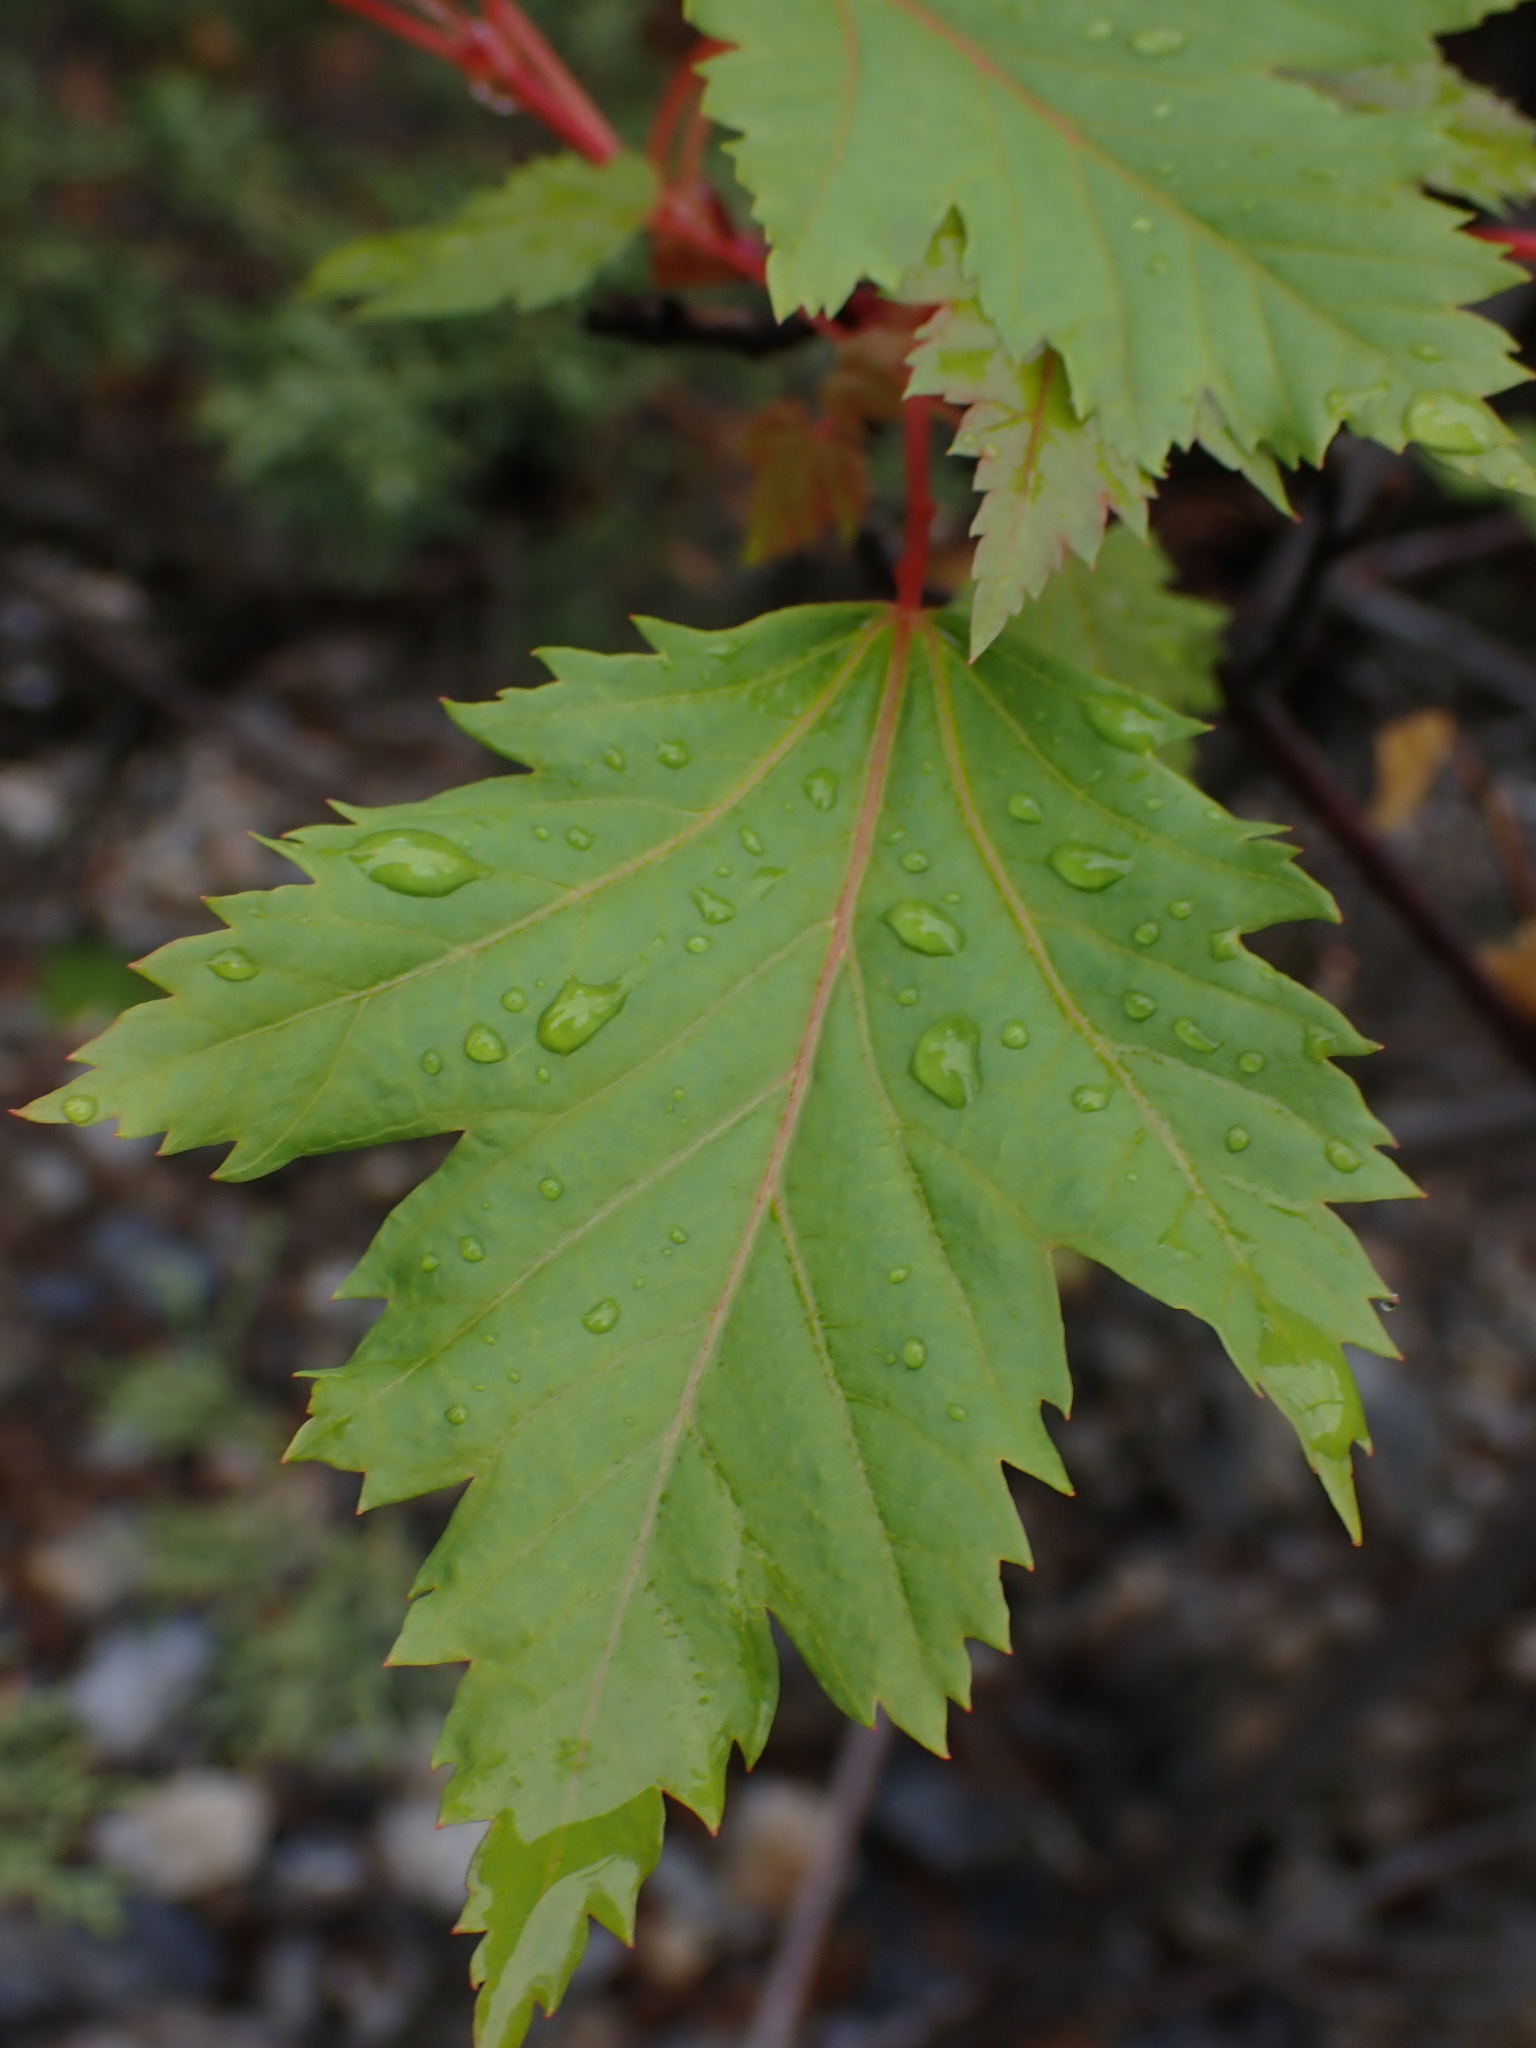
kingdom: Plantae
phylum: Tracheophyta
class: Magnoliopsida
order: Sapindales
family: Sapindaceae
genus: Acer
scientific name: Acer glabrum
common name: Rocky mountain maple
